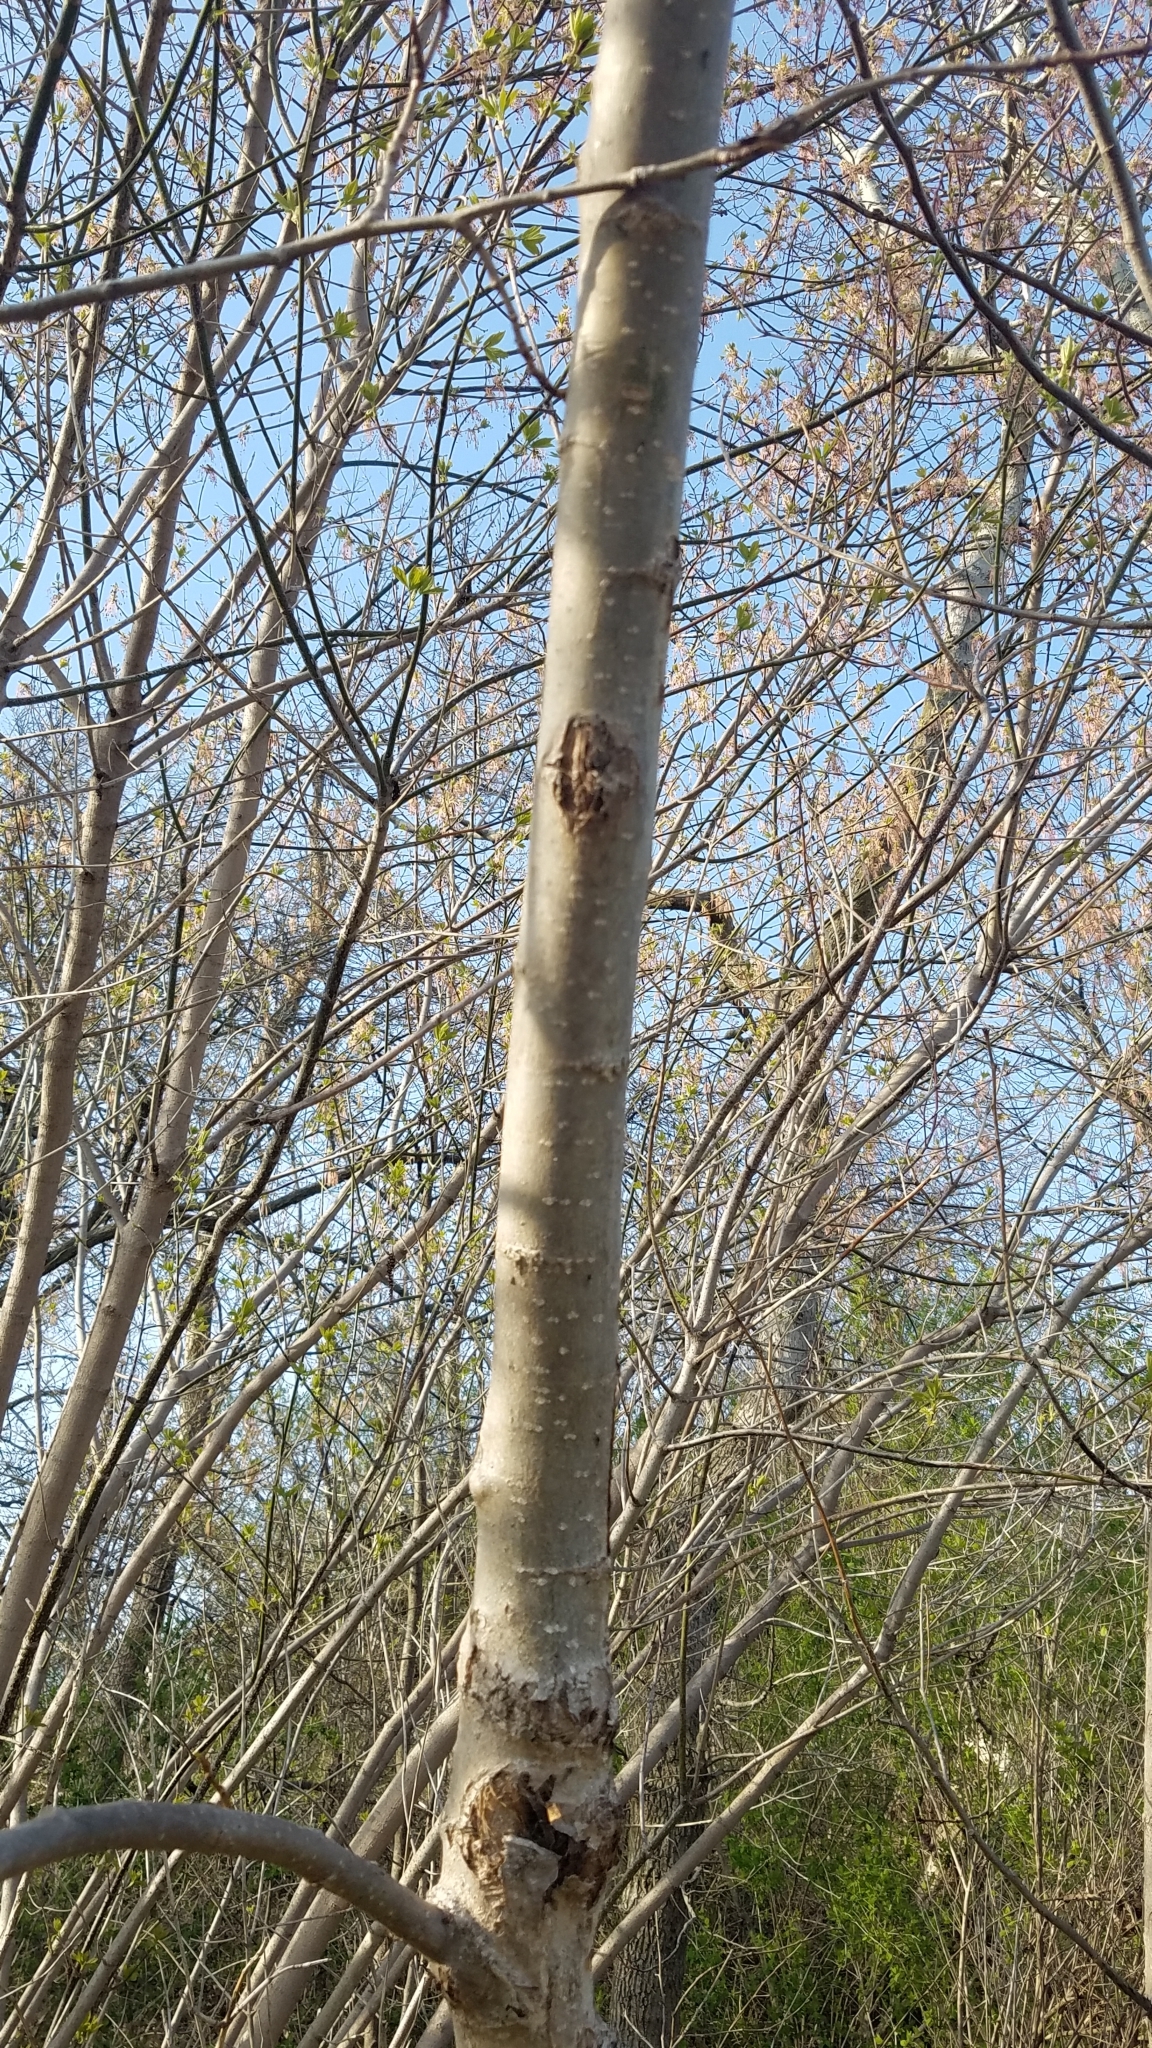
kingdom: Plantae
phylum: Tracheophyta
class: Magnoliopsida
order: Sapindales
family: Sapindaceae
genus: Acer
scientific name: Acer negundo
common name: Ashleaf maple
